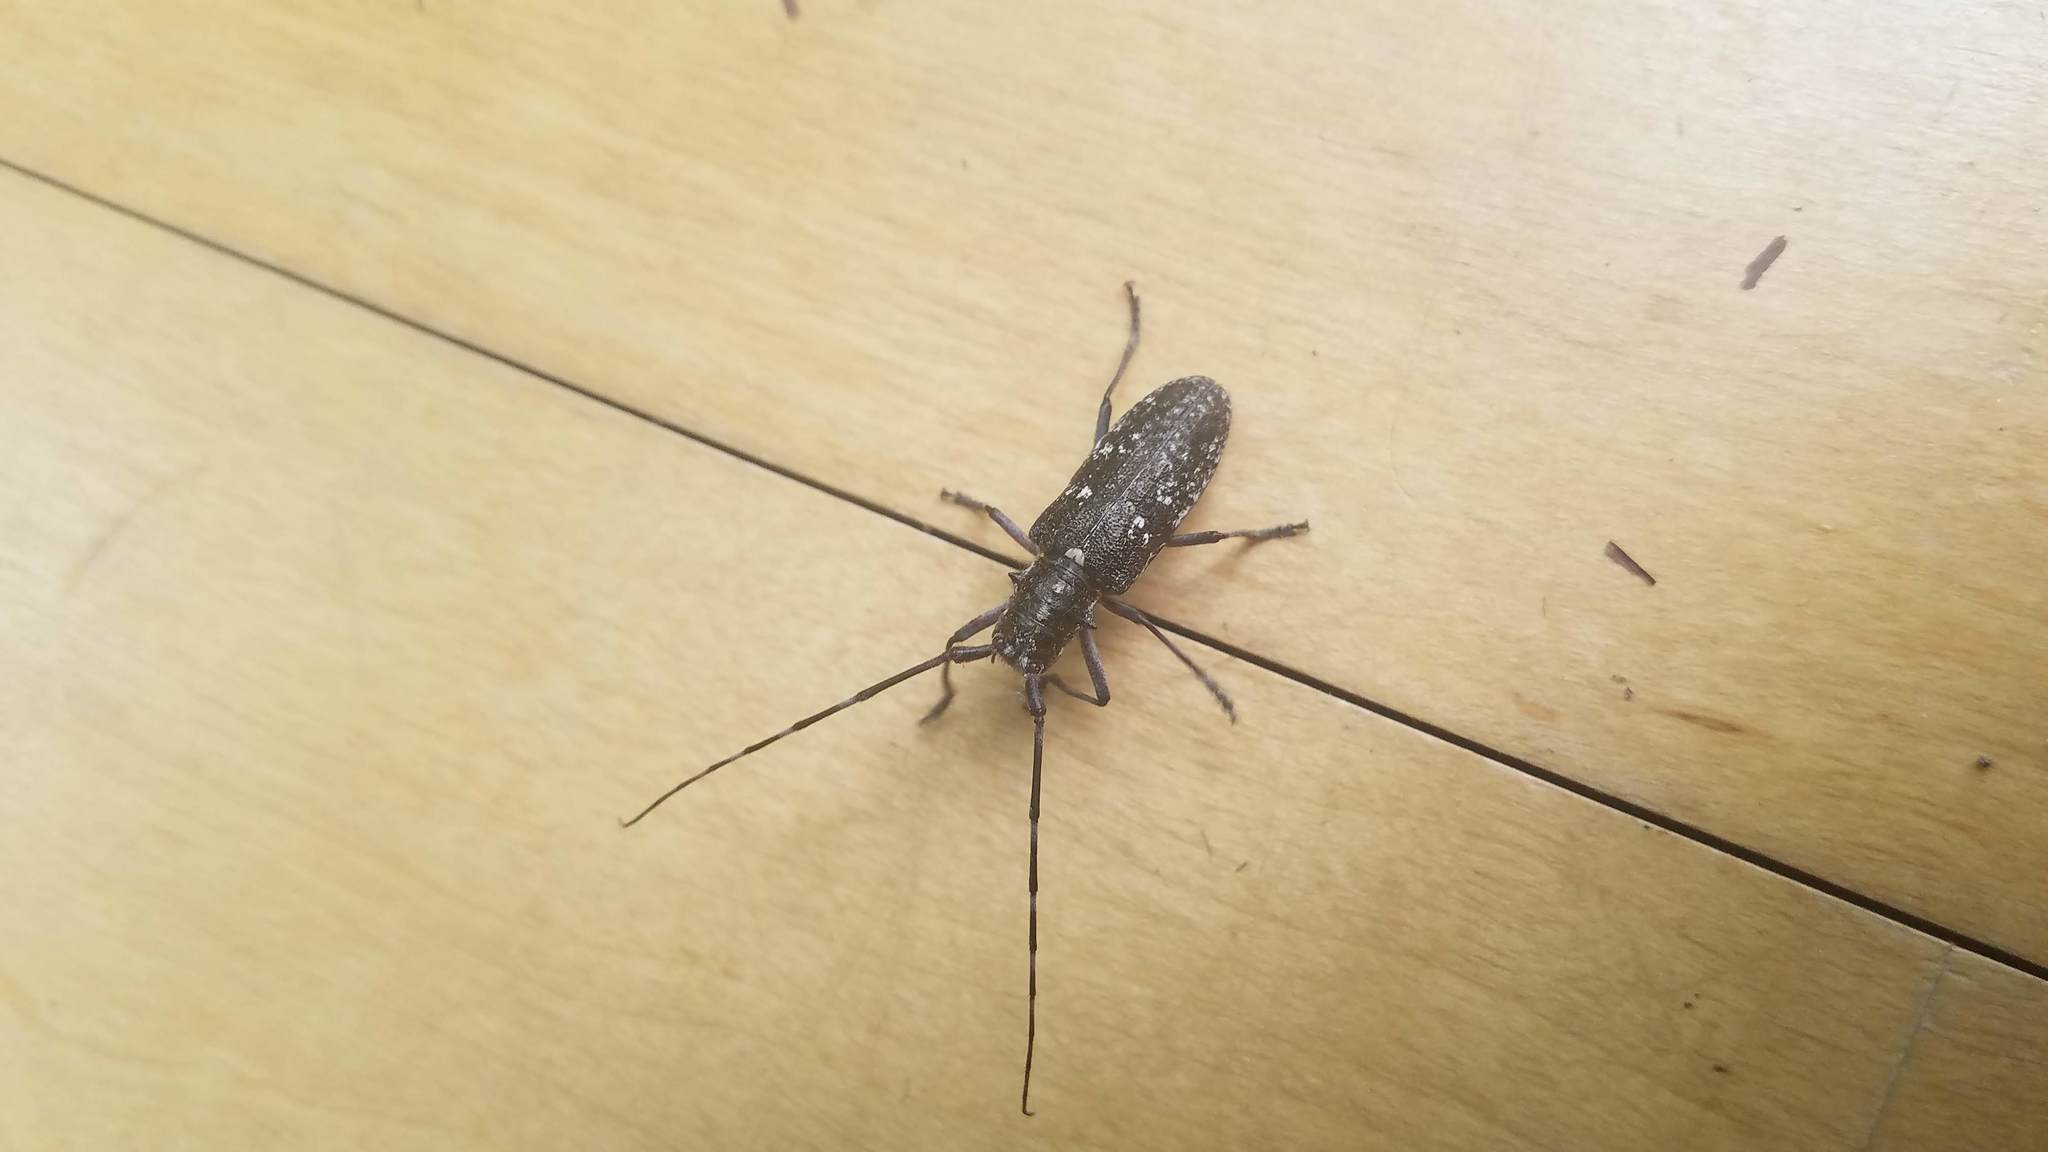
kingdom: Animalia
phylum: Arthropoda
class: Insecta
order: Coleoptera
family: Cerambycidae
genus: Monochamus
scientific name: Monochamus scutellatus
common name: White-spotted sawyer beetle
